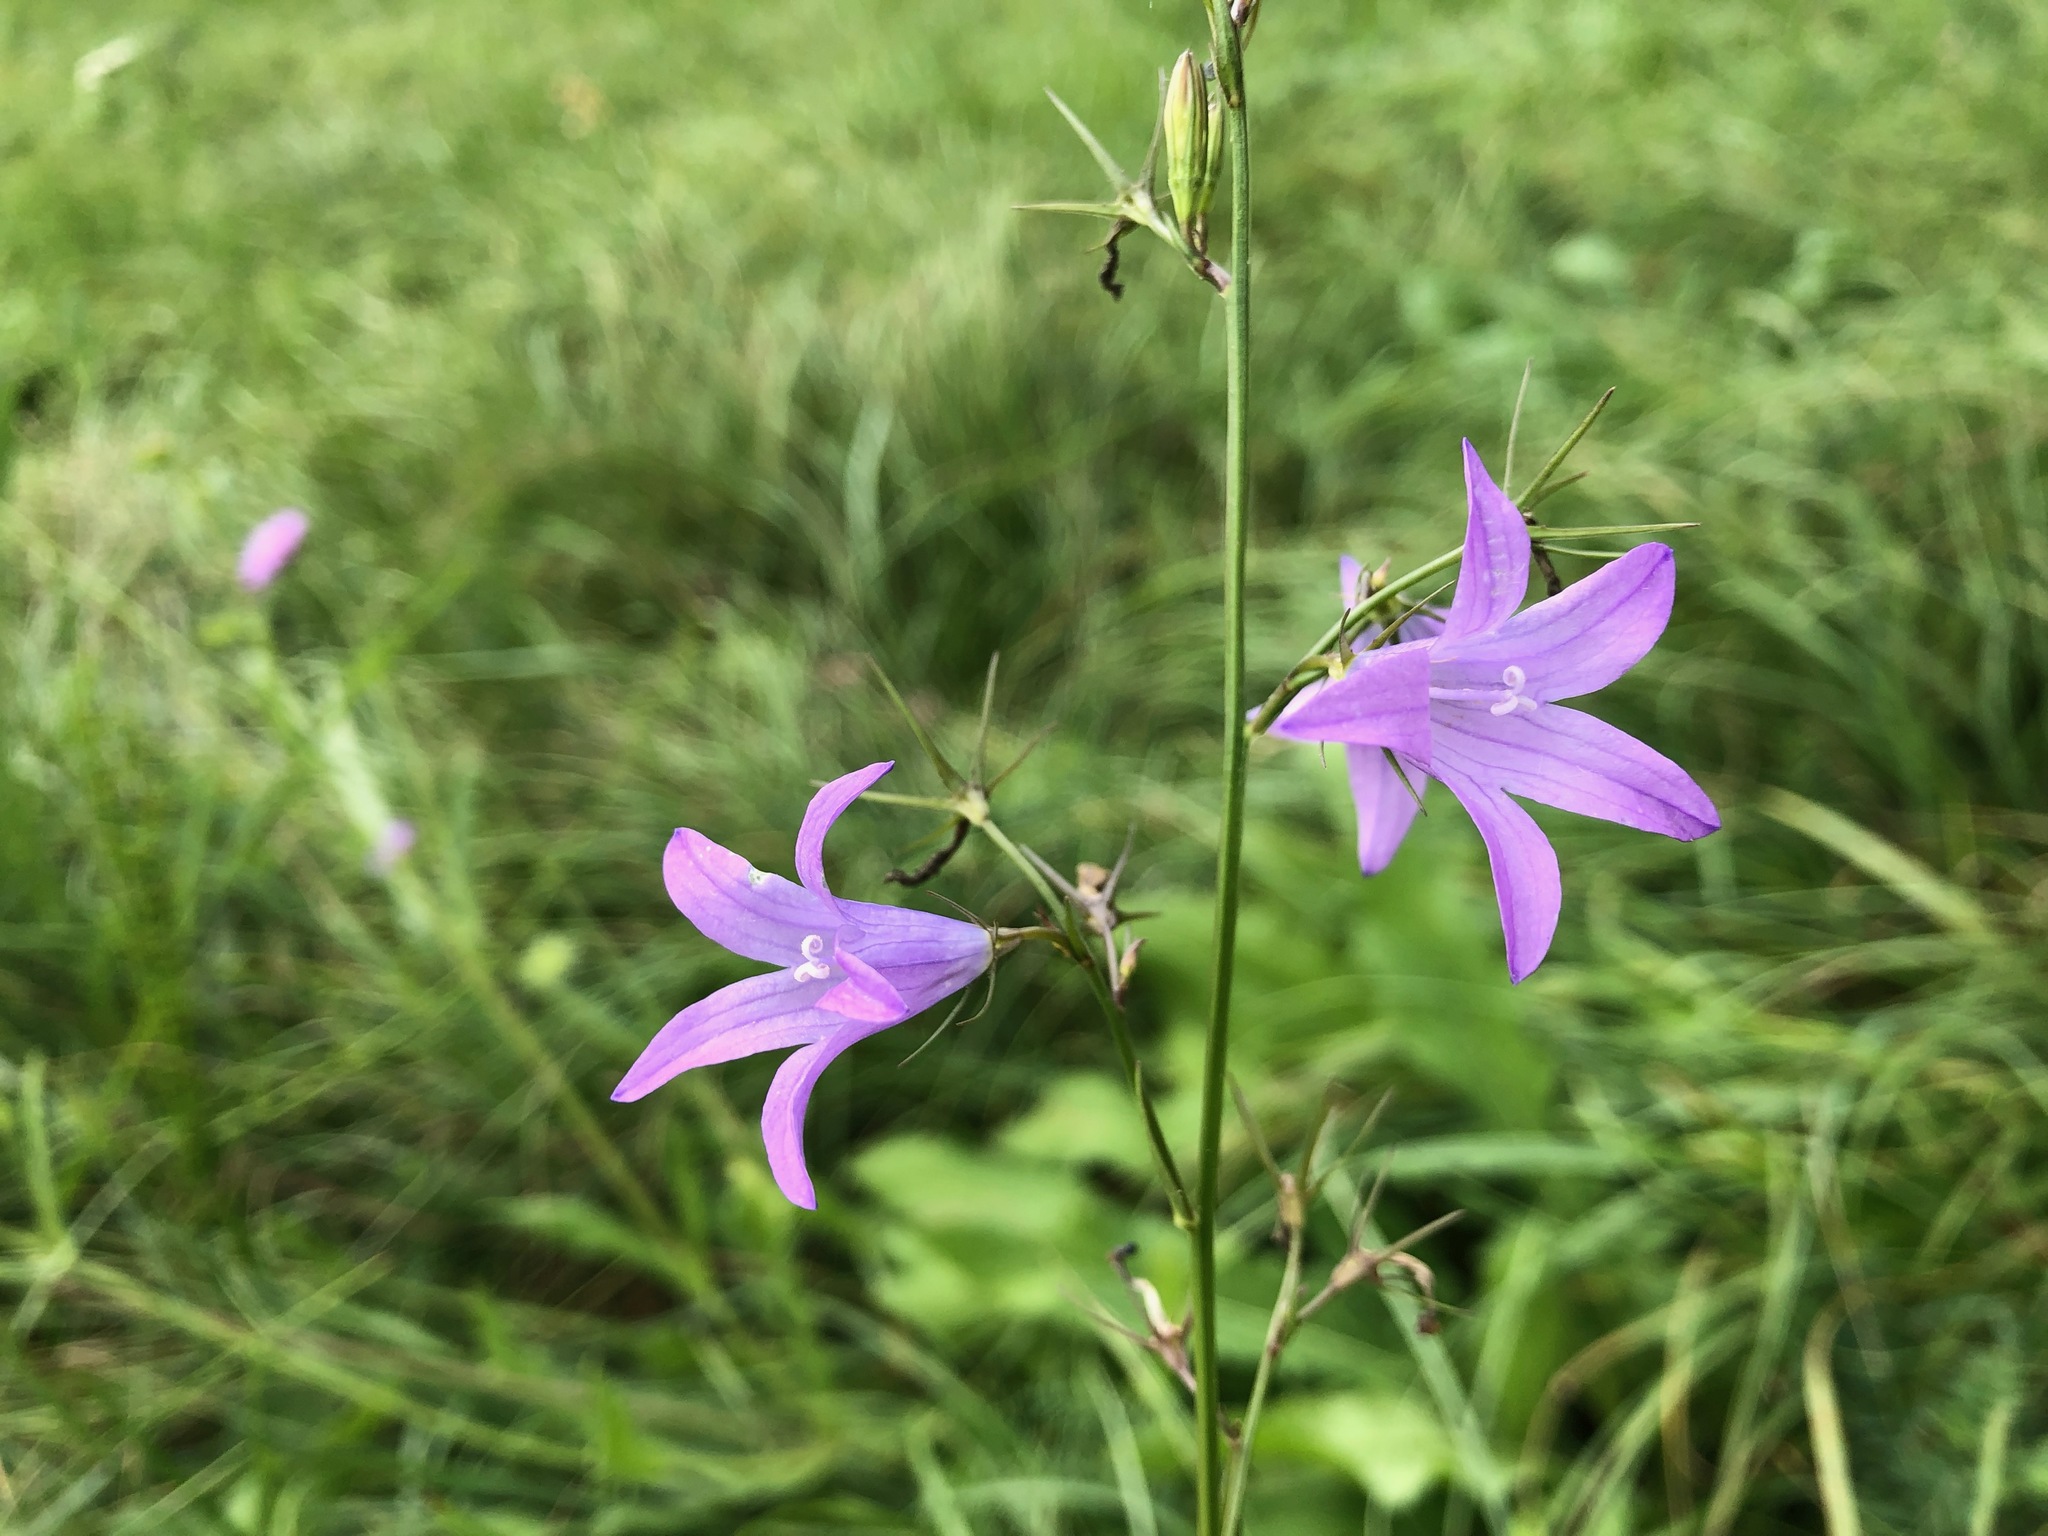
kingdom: Plantae
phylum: Tracheophyta
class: Magnoliopsida
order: Asterales
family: Campanulaceae
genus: Campanula
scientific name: Campanula rapunculus
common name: Rampion bellflower
